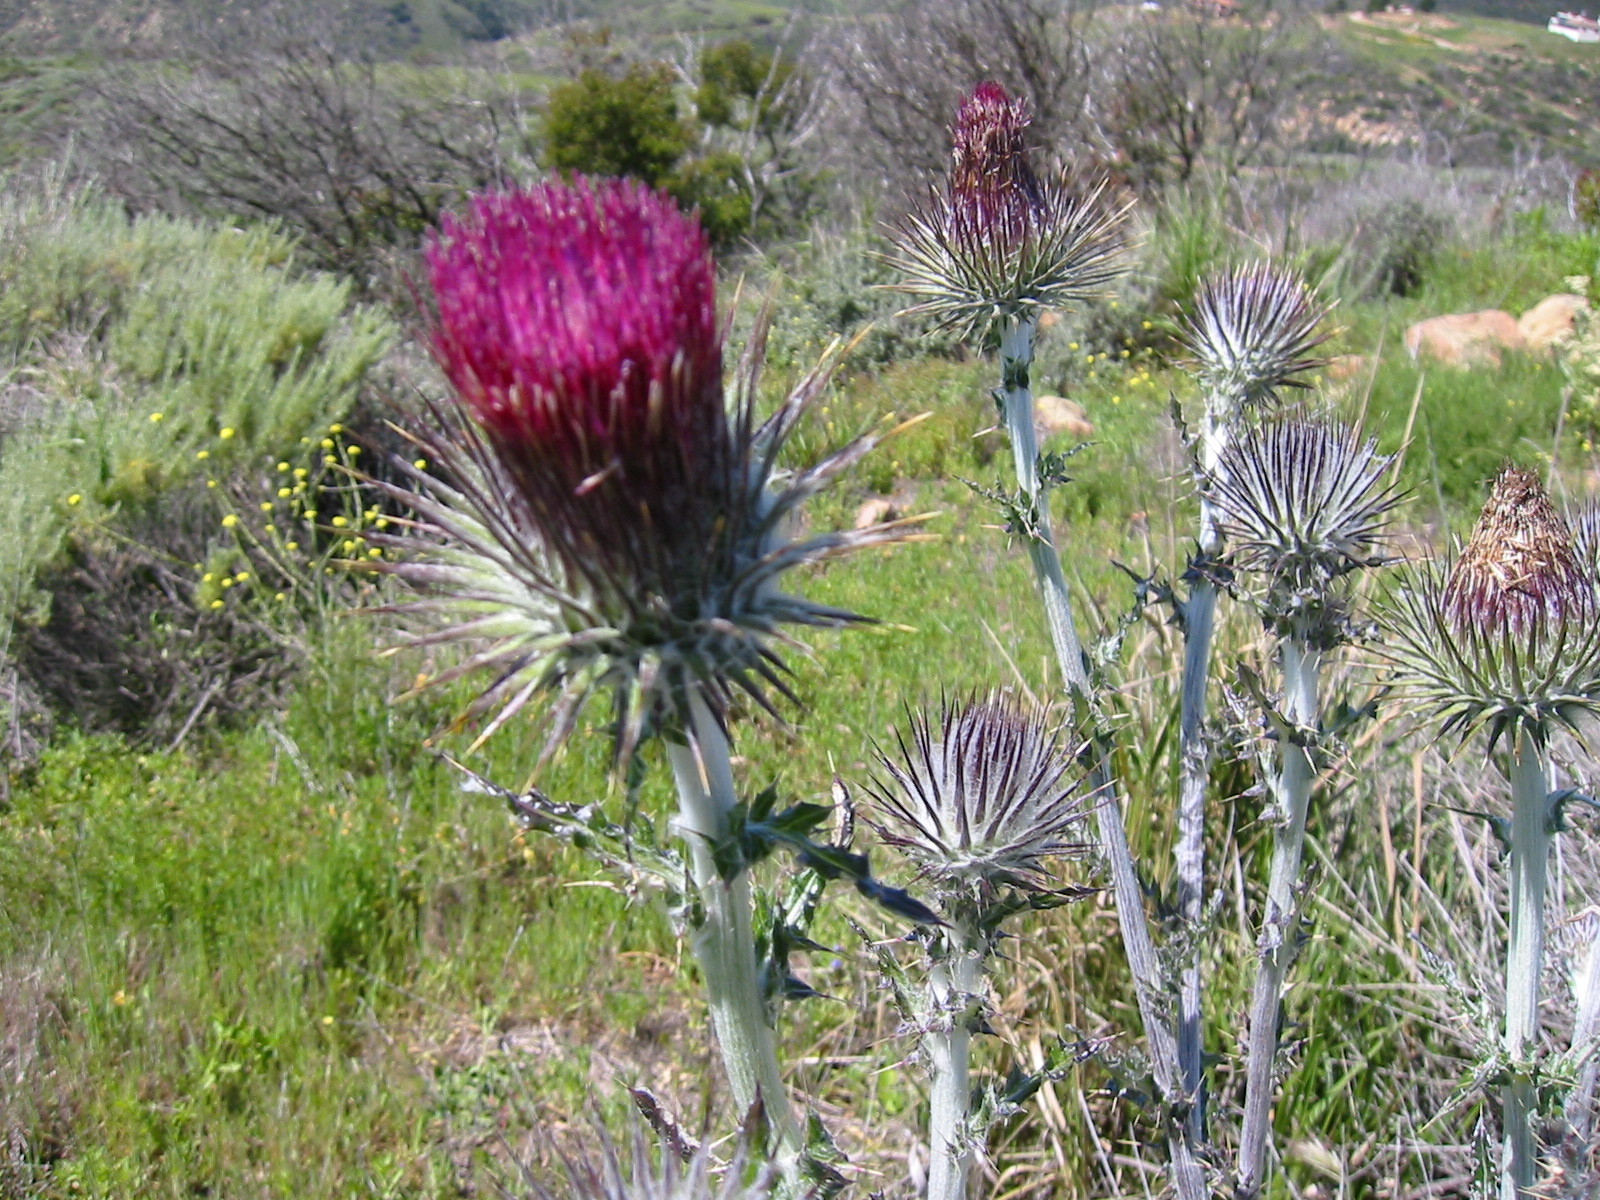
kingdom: Plantae
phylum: Tracheophyta
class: Magnoliopsida
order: Asterales
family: Asteraceae
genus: Artemisia
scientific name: Artemisia californica
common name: California sagebrush
